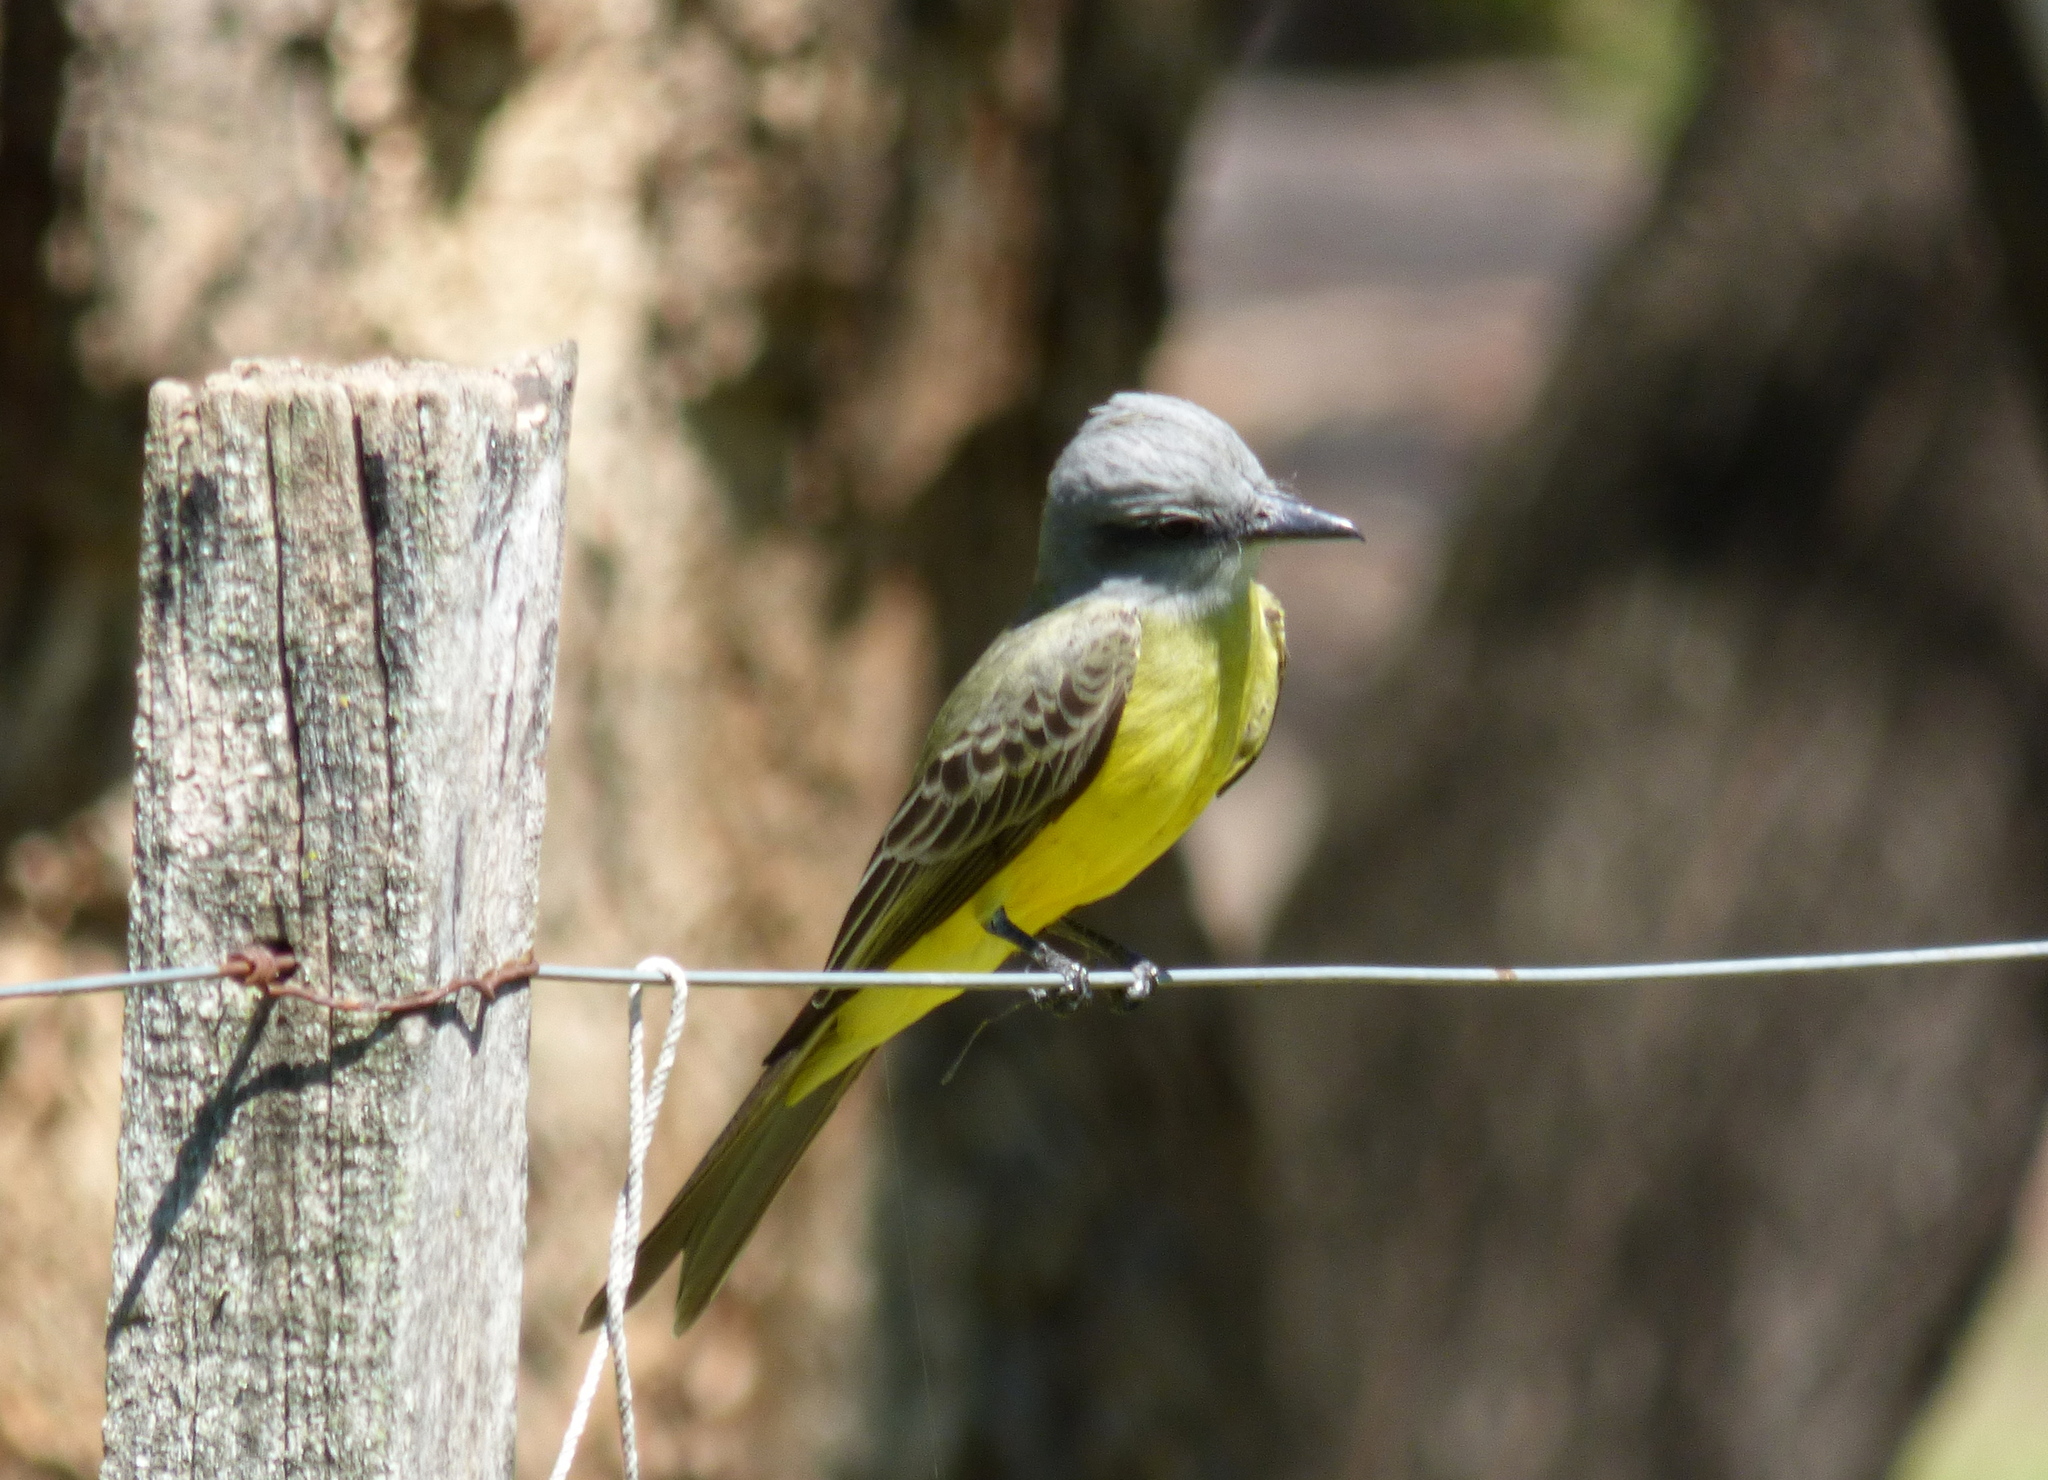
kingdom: Animalia
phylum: Chordata
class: Aves
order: Passeriformes
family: Tyrannidae
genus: Tyrannus
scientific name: Tyrannus melancholicus
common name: Tropical kingbird
